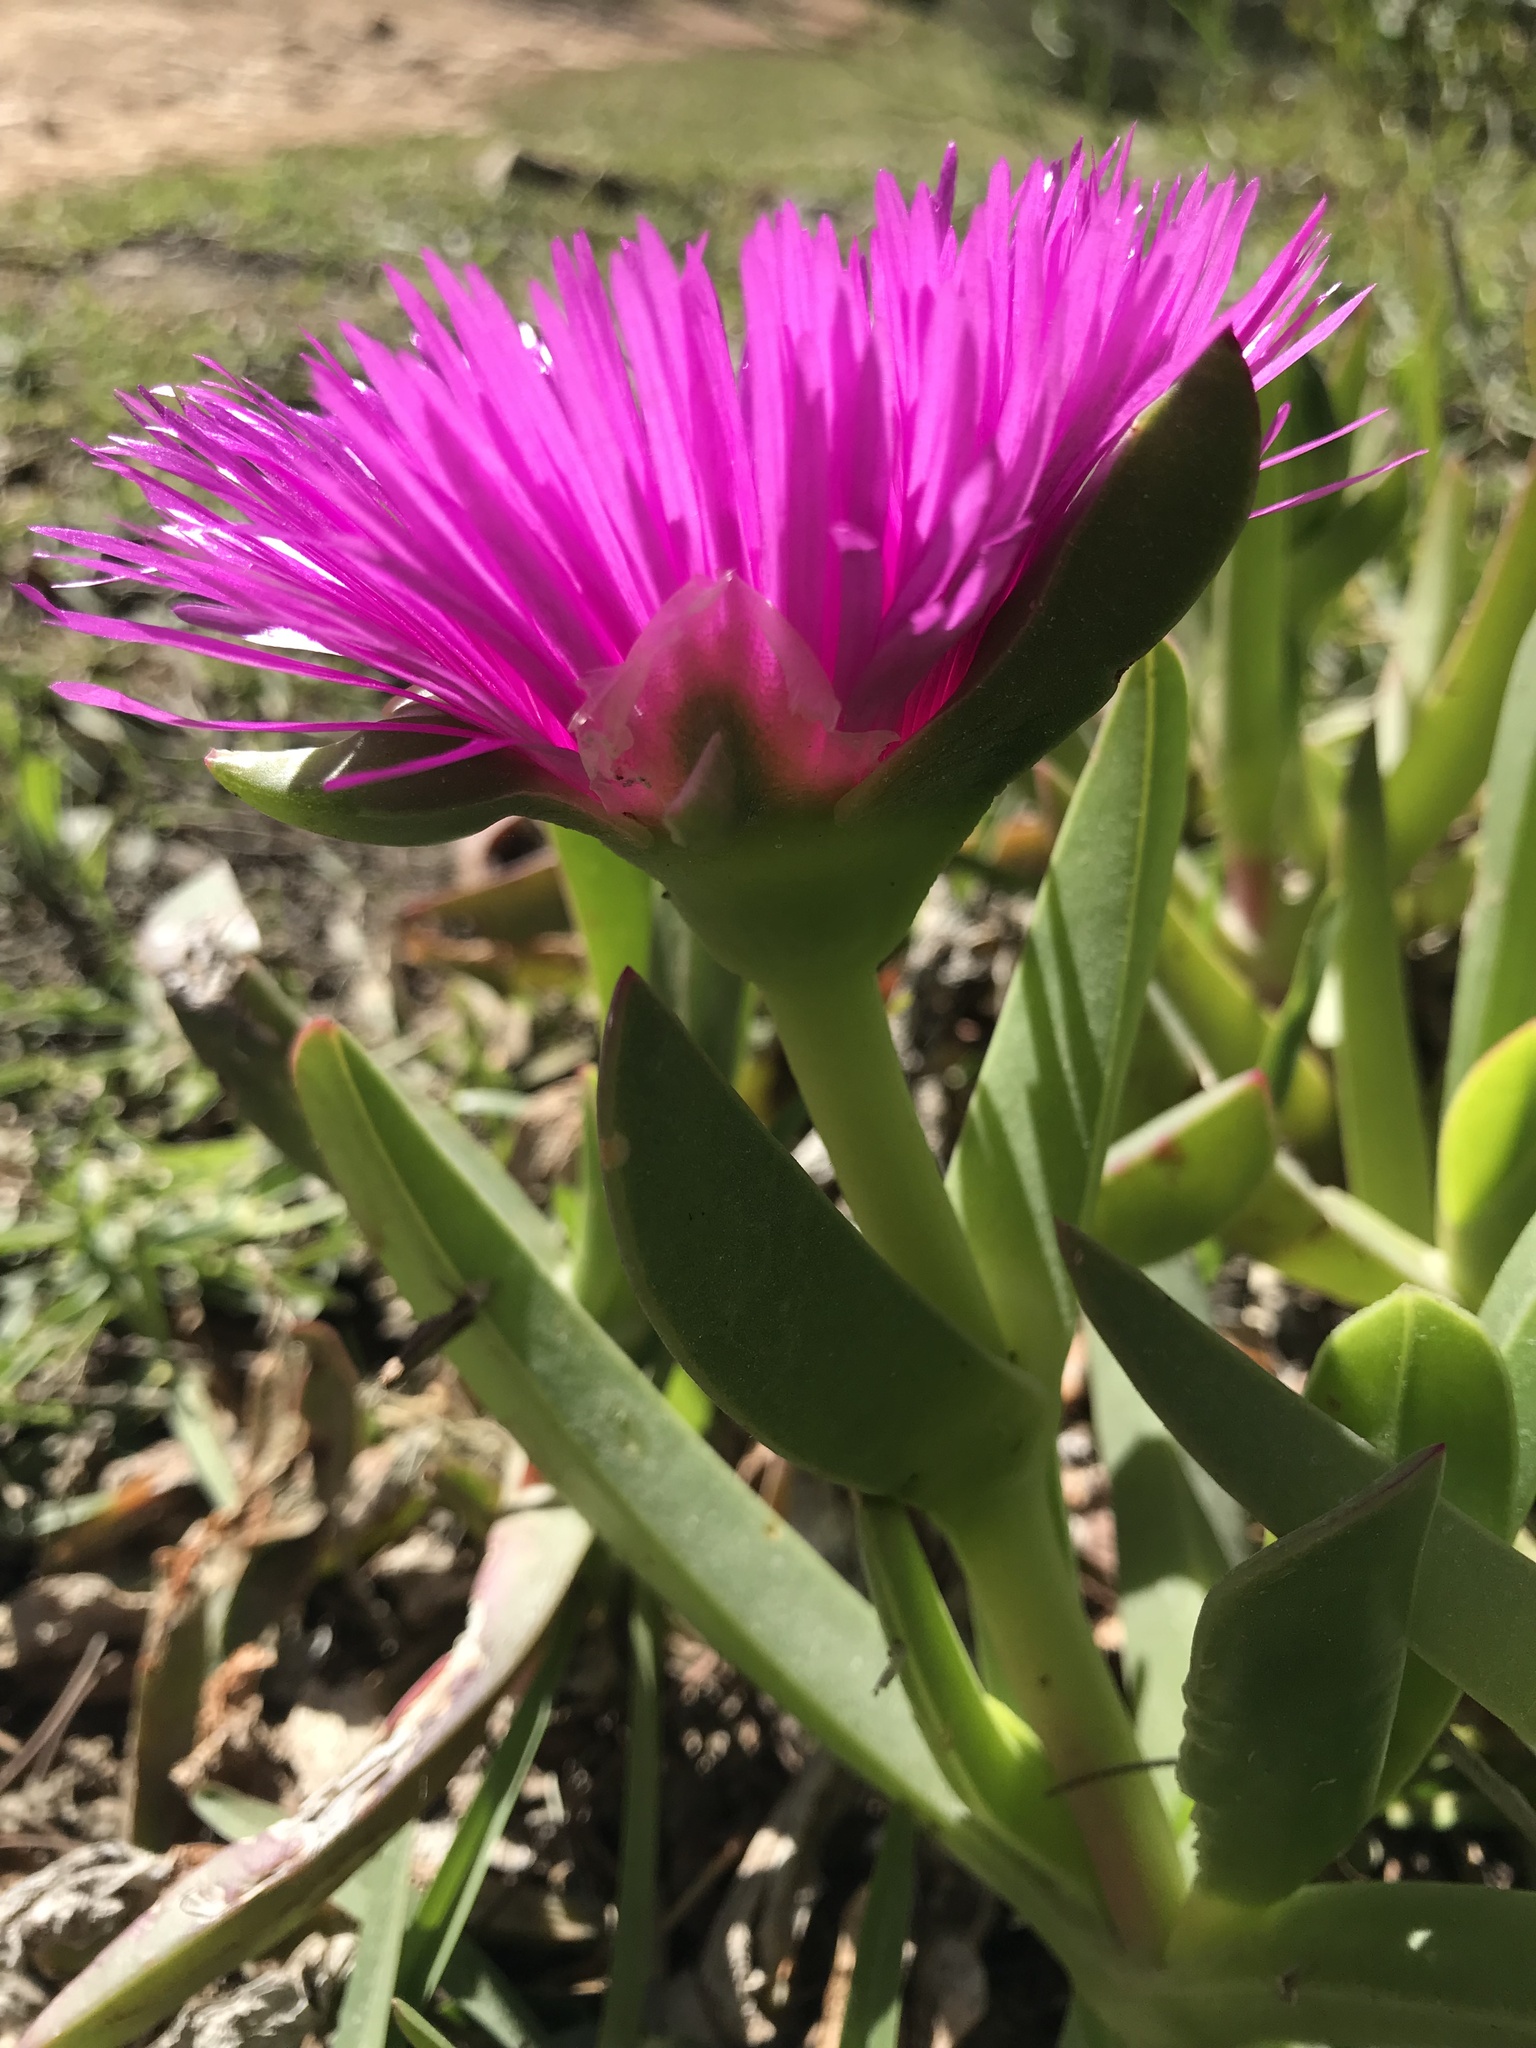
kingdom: Plantae
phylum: Tracheophyta
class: Magnoliopsida
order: Caryophyllales
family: Aizoaceae
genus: Carpobrotus
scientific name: Carpobrotus deliciosus
